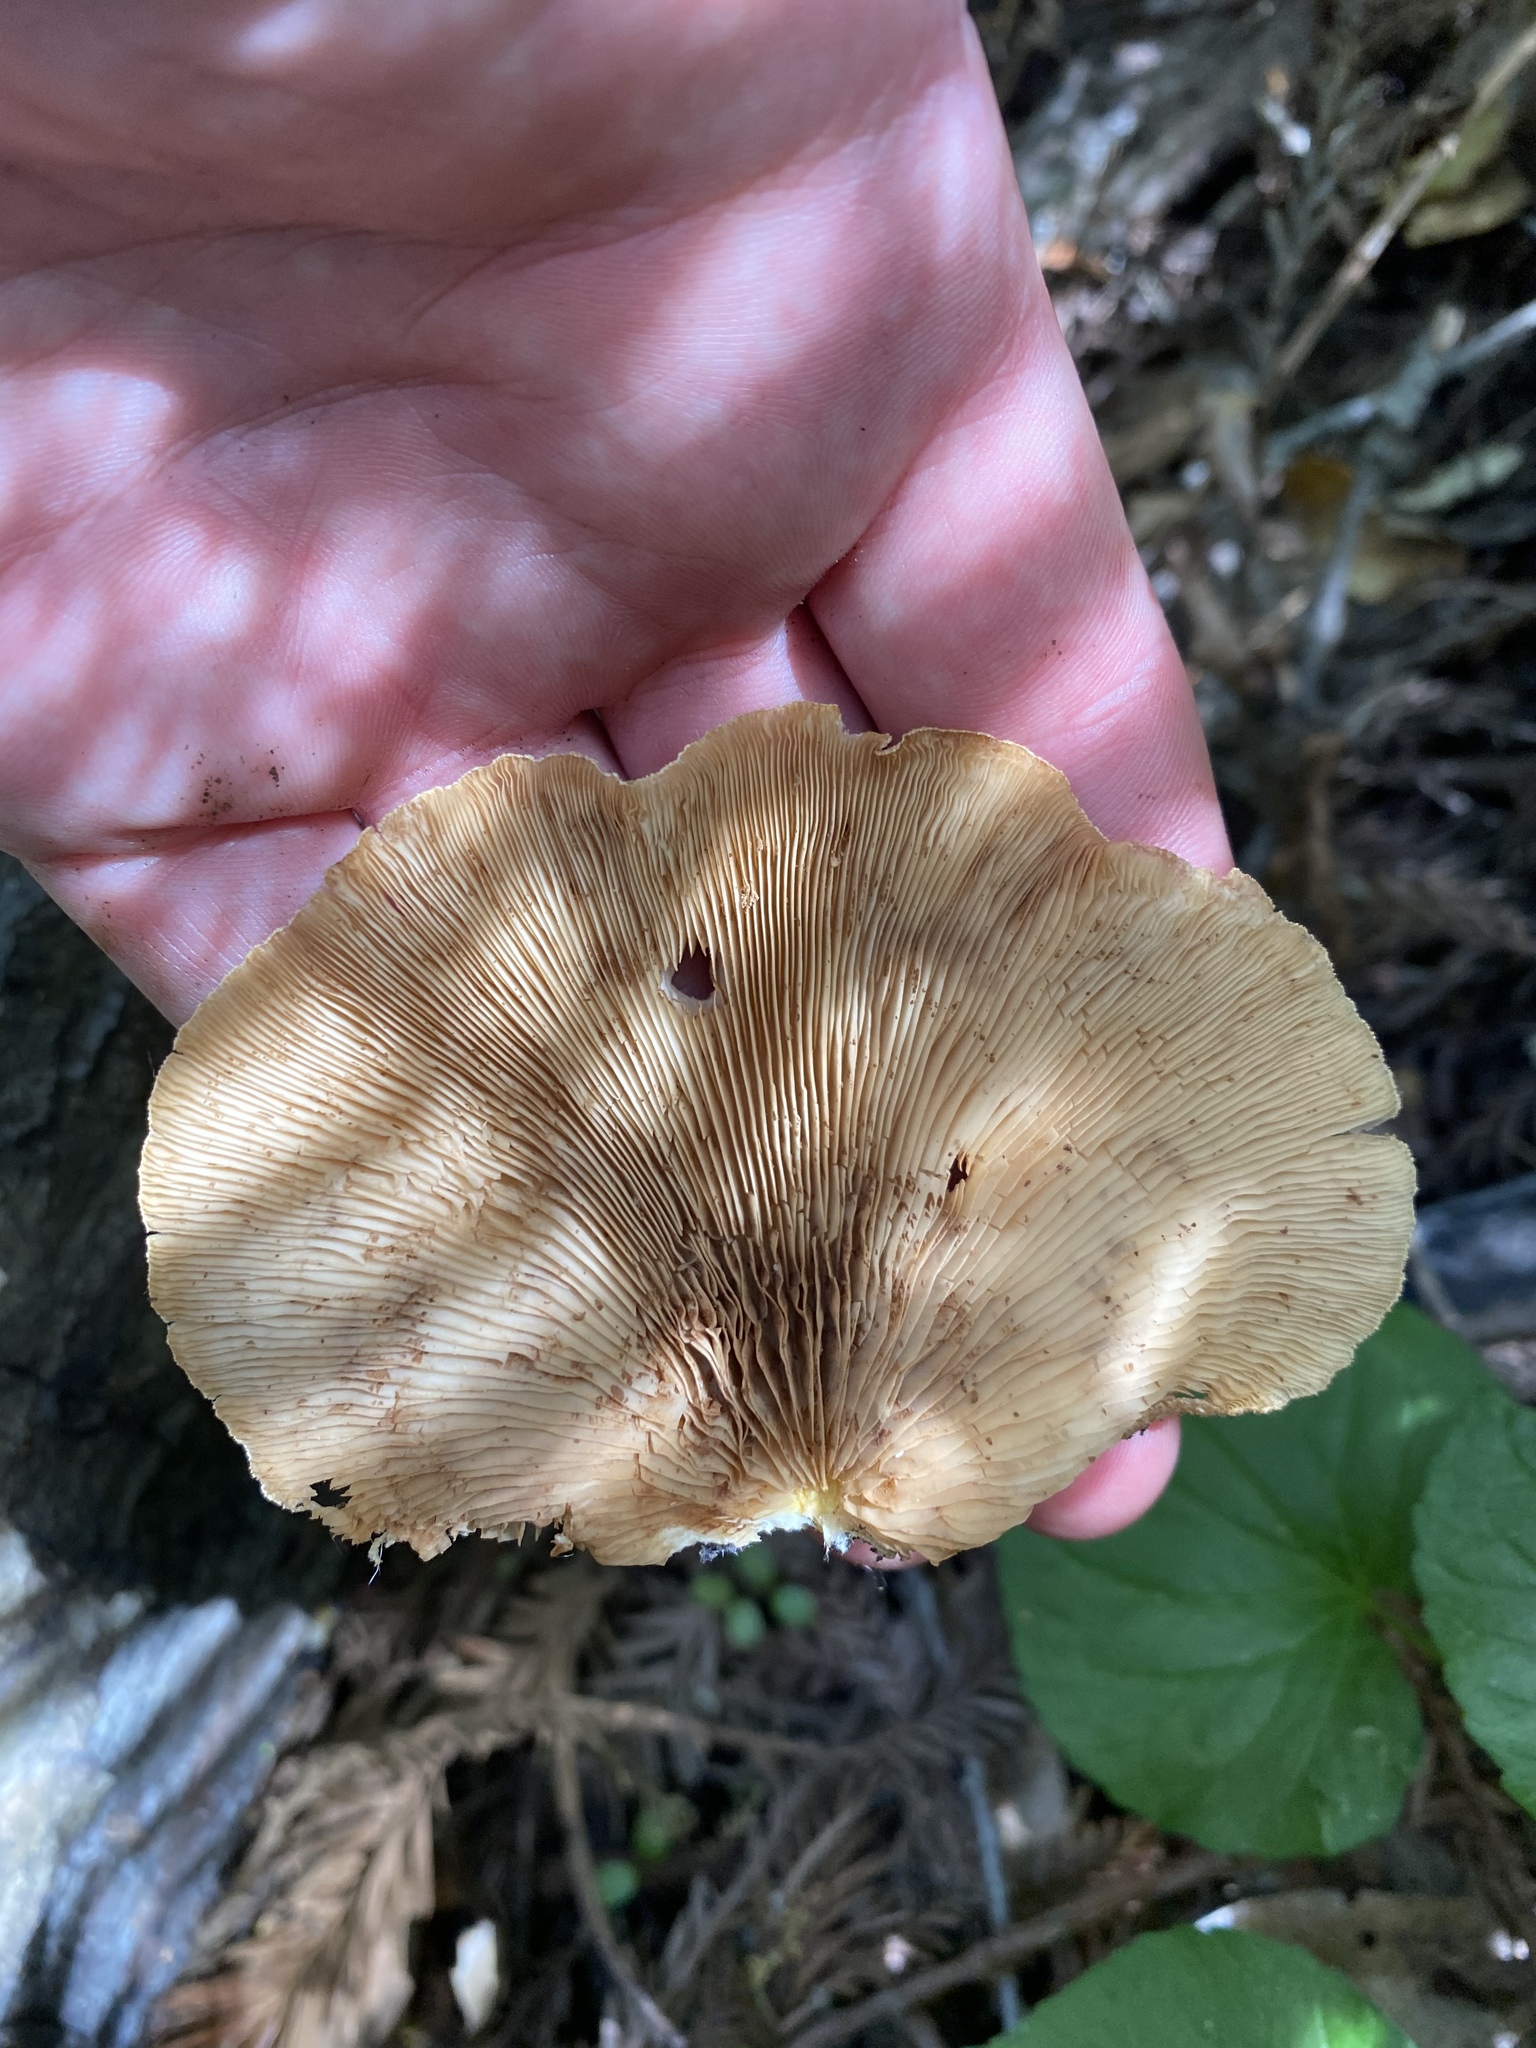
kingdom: Fungi
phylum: Basidiomycota
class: Agaricomycetes
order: Agaricales
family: Phyllotopsidaceae
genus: Phyllotopsis
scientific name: Phyllotopsis nidulans
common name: Orange mock oyster
